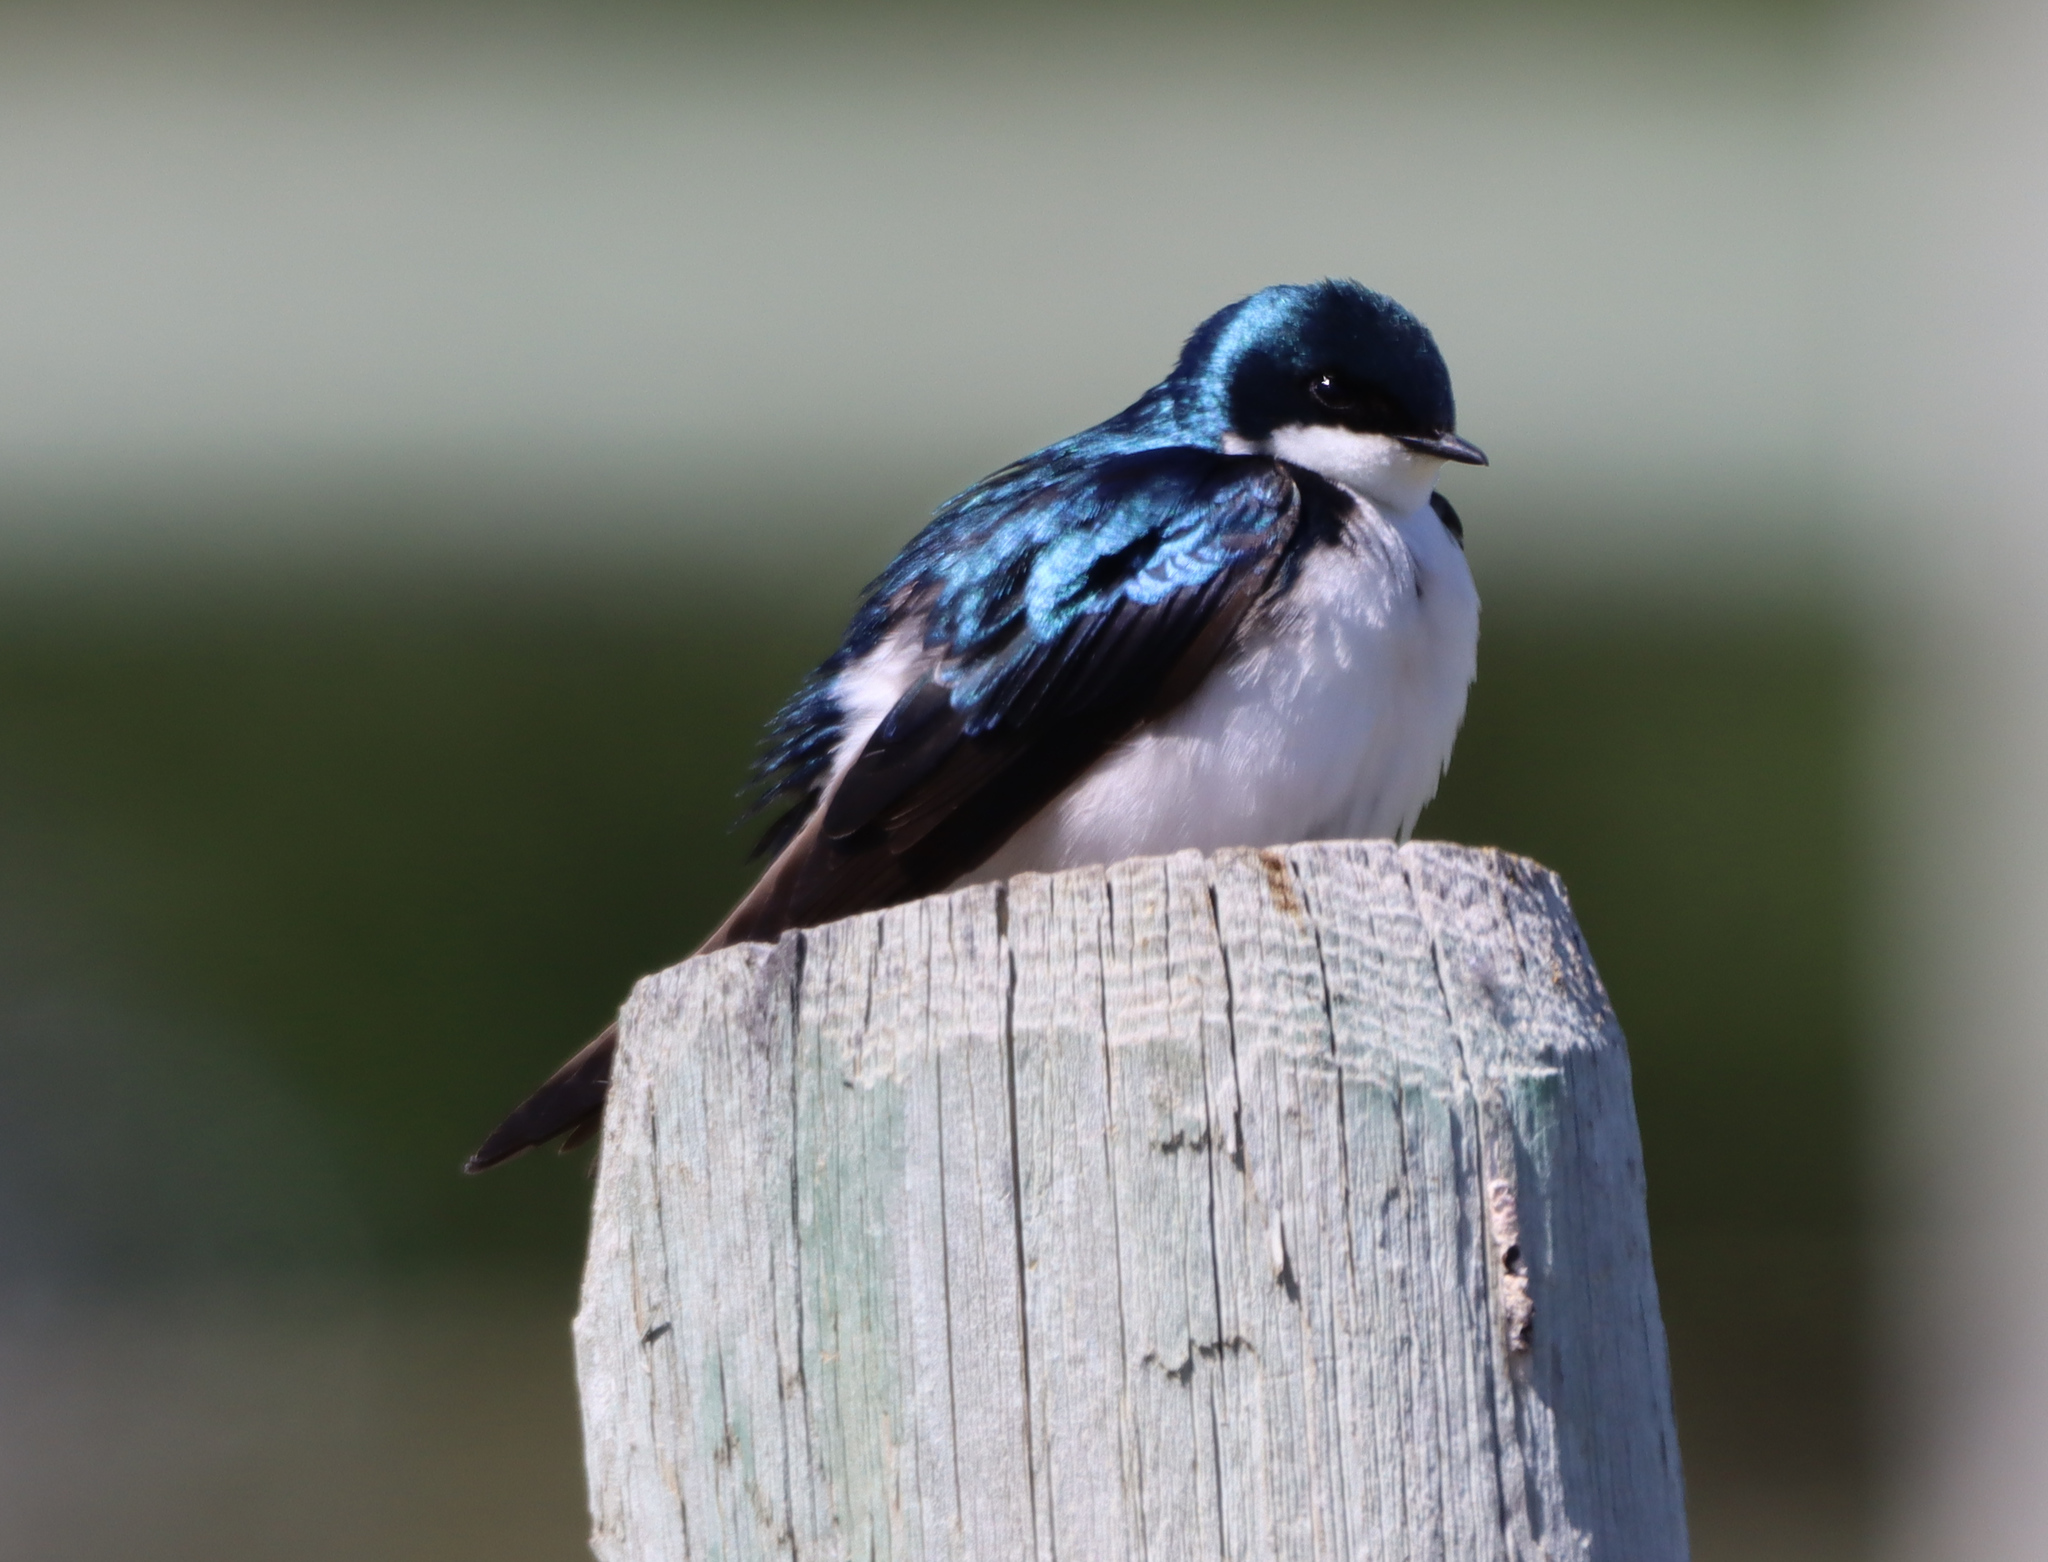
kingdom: Animalia
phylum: Chordata
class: Aves
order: Passeriformes
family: Hirundinidae
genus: Tachycineta
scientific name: Tachycineta bicolor
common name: Tree swallow
